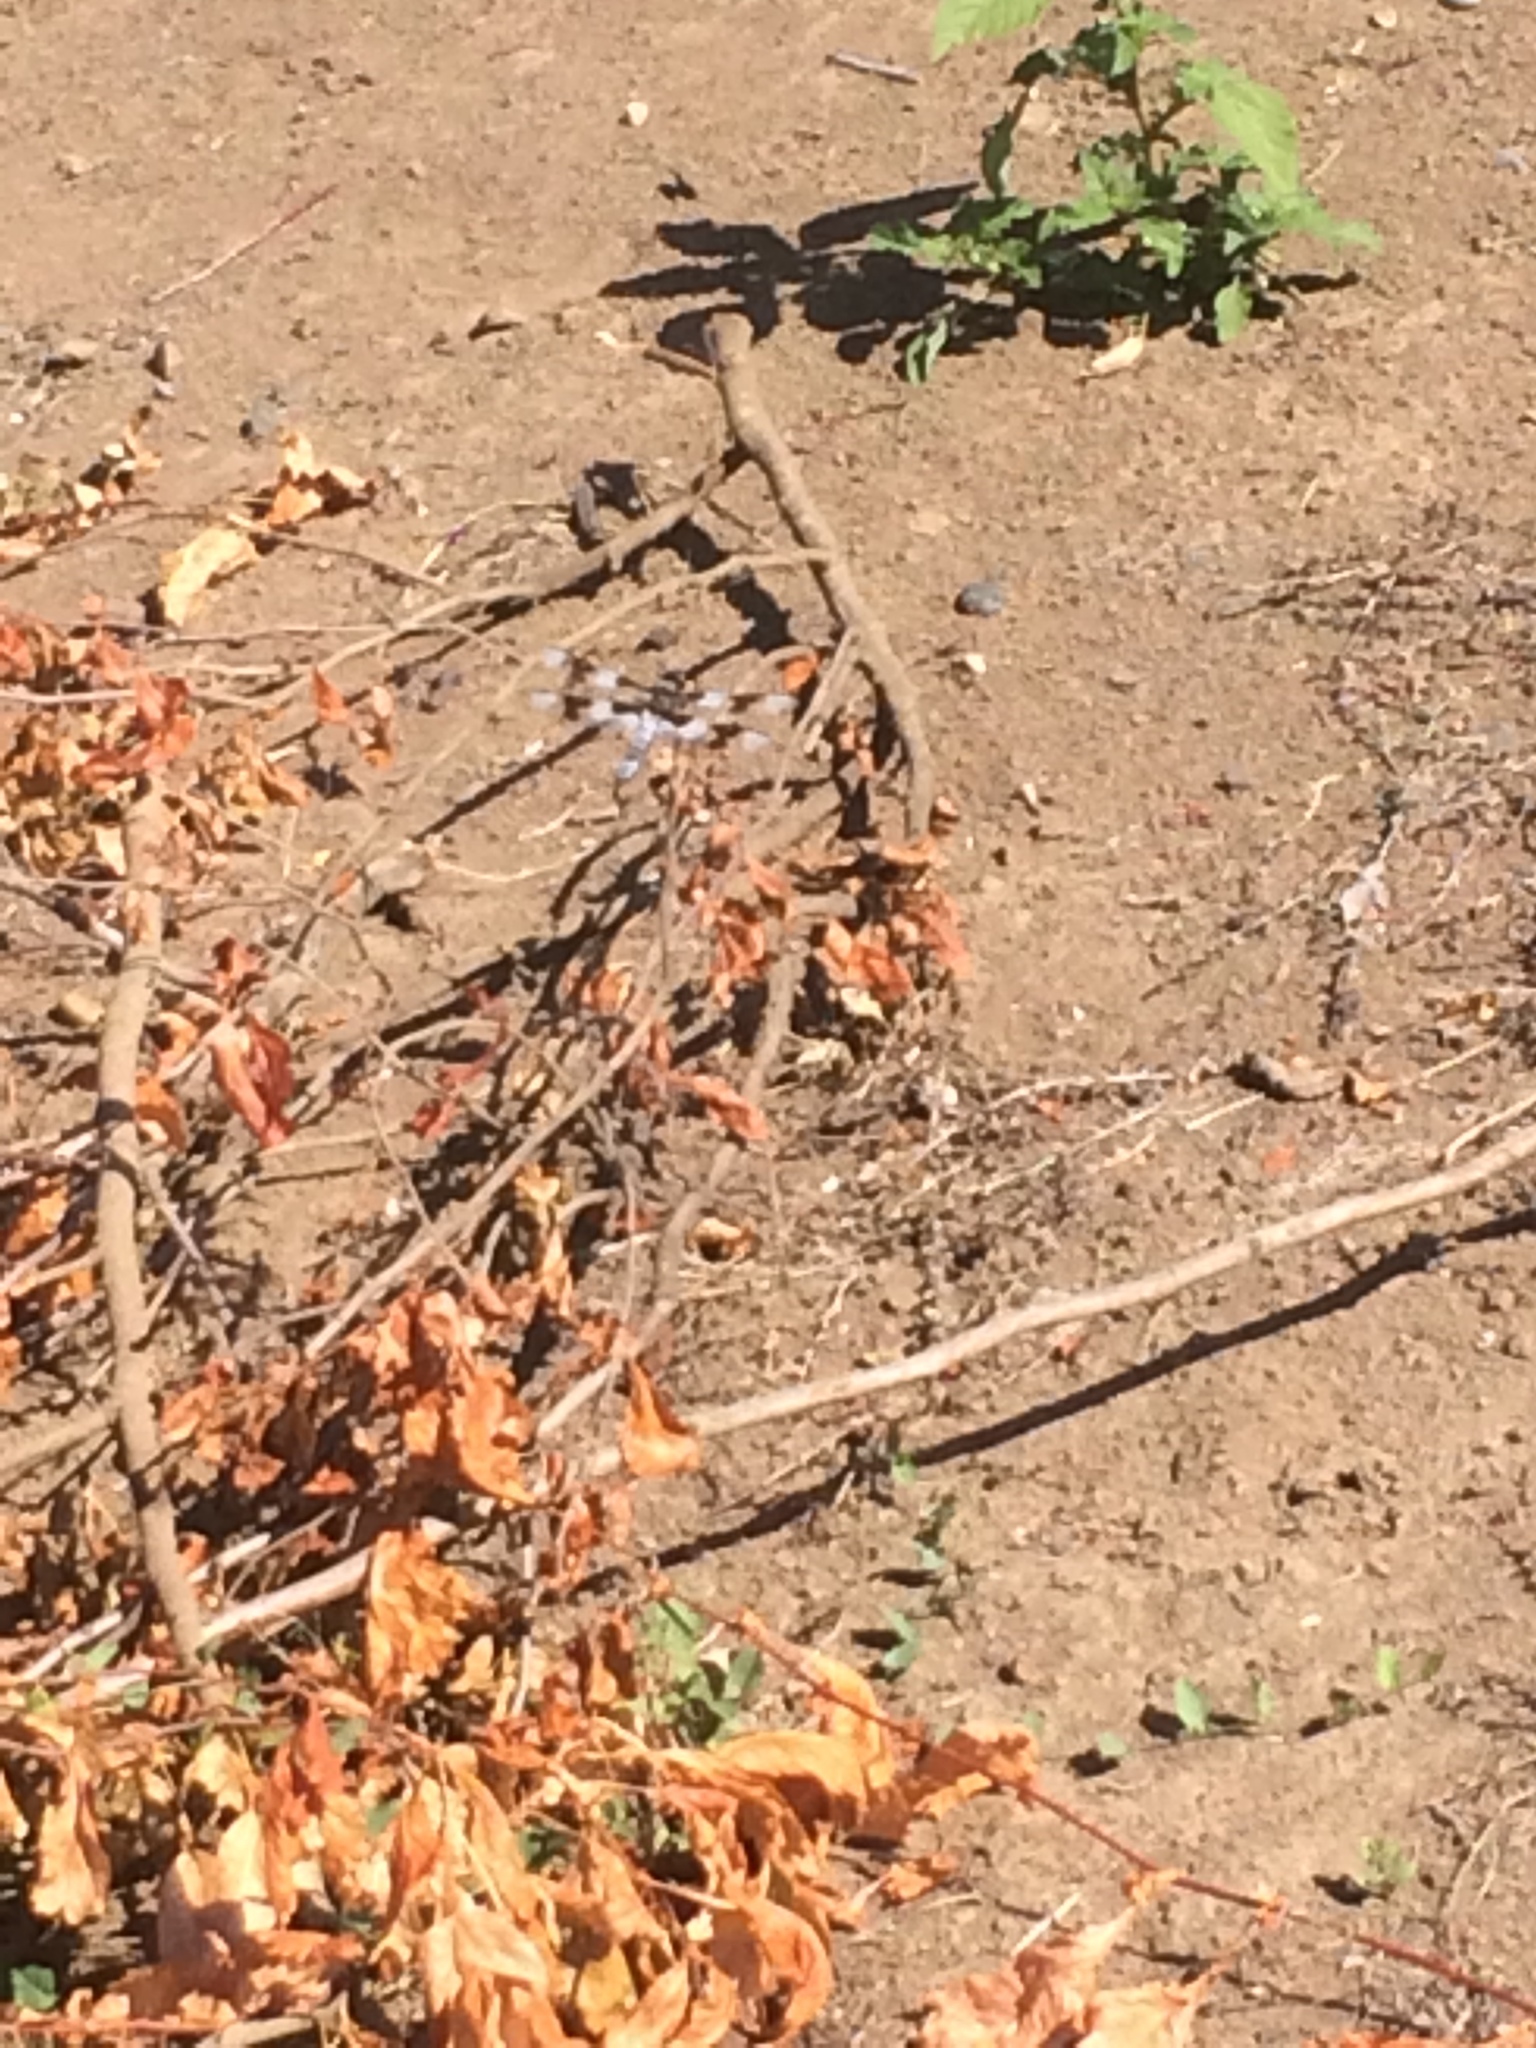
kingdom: Animalia
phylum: Arthropoda
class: Insecta
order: Odonata
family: Libellulidae
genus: Libellula
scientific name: Libellula forensis
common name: Eight-spotted skimmer
